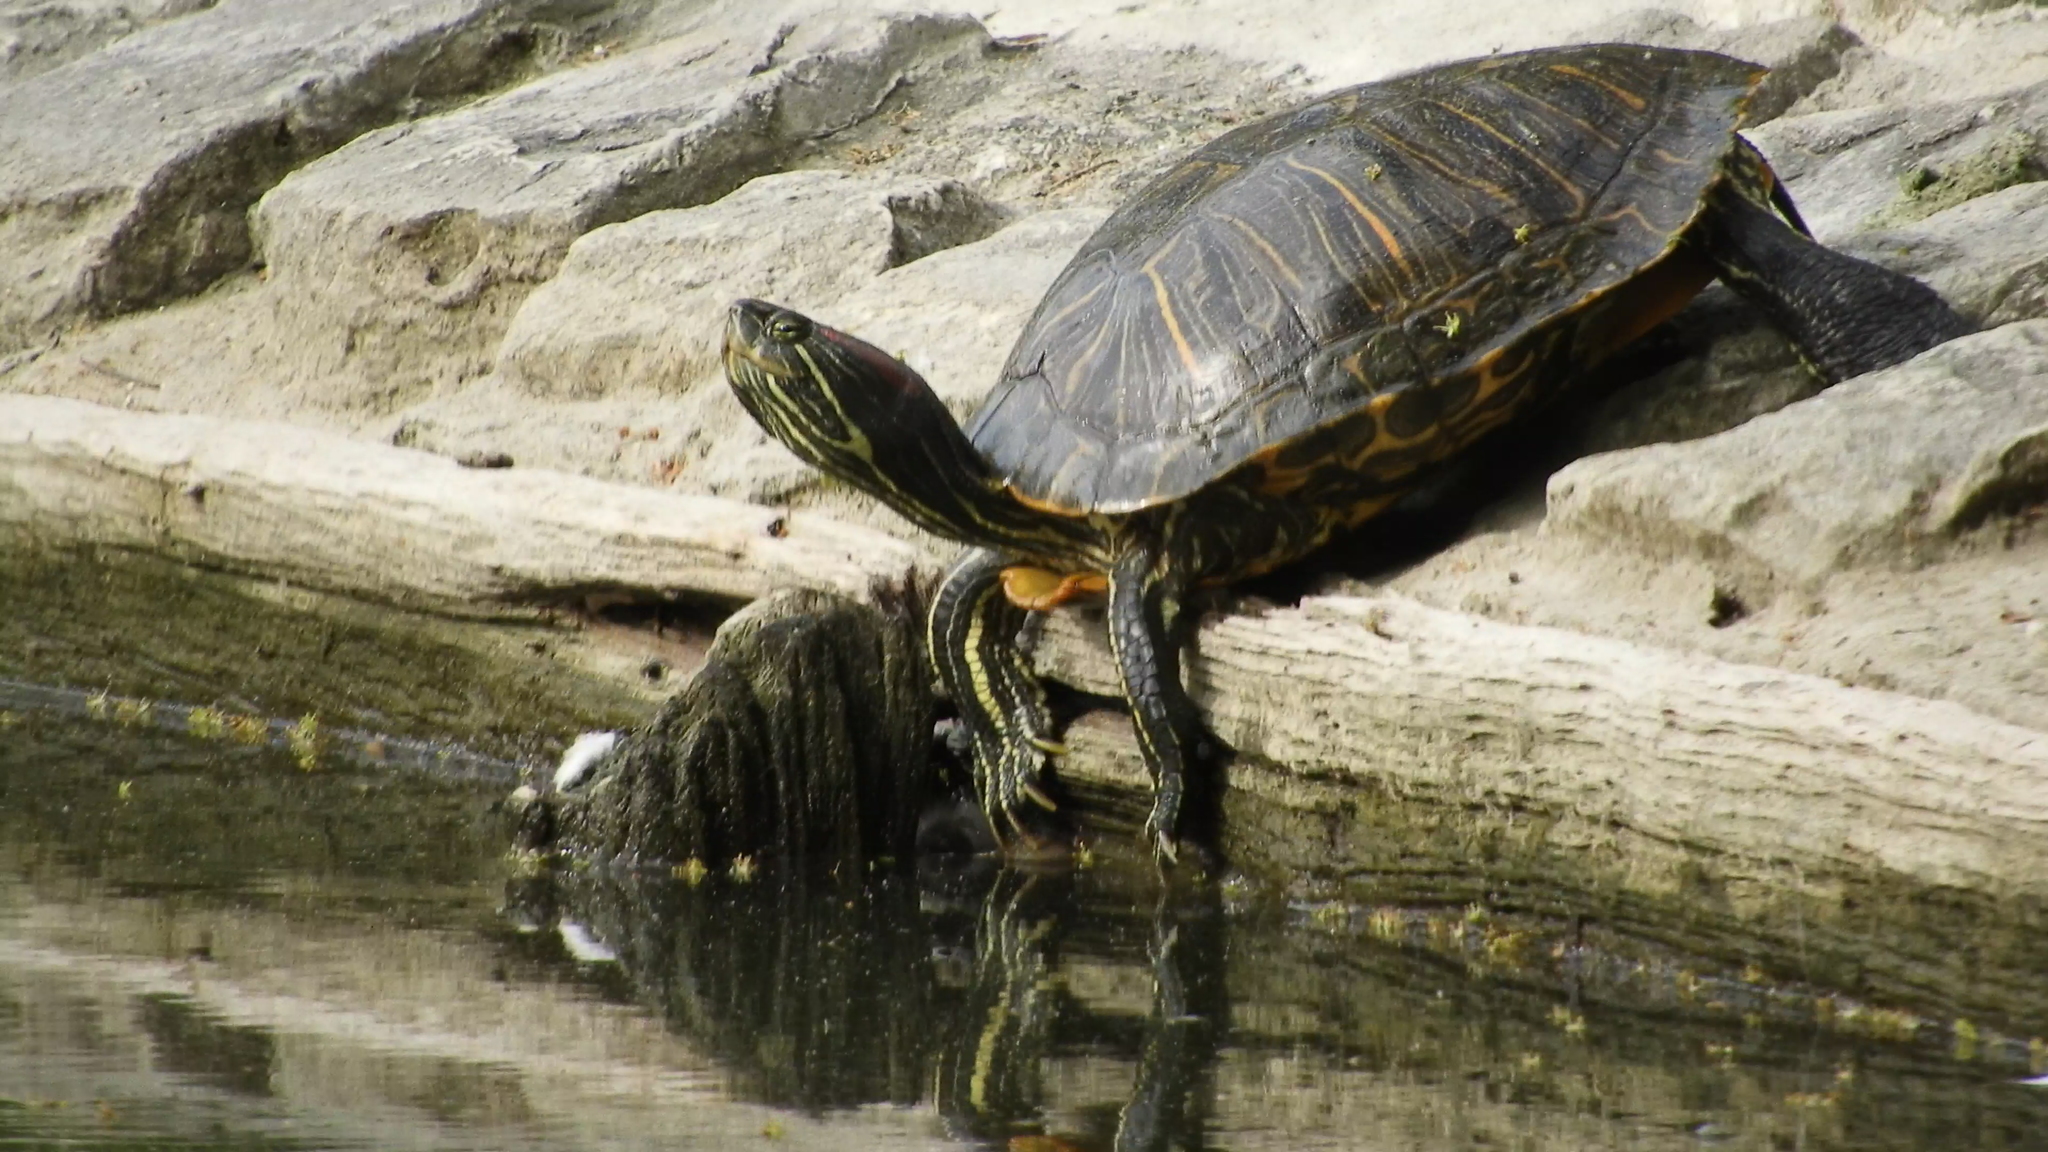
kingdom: Animalia
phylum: Chordata
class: Testudines
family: Emydidae
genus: Trachemys
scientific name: Trachemys scripta
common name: Slider
